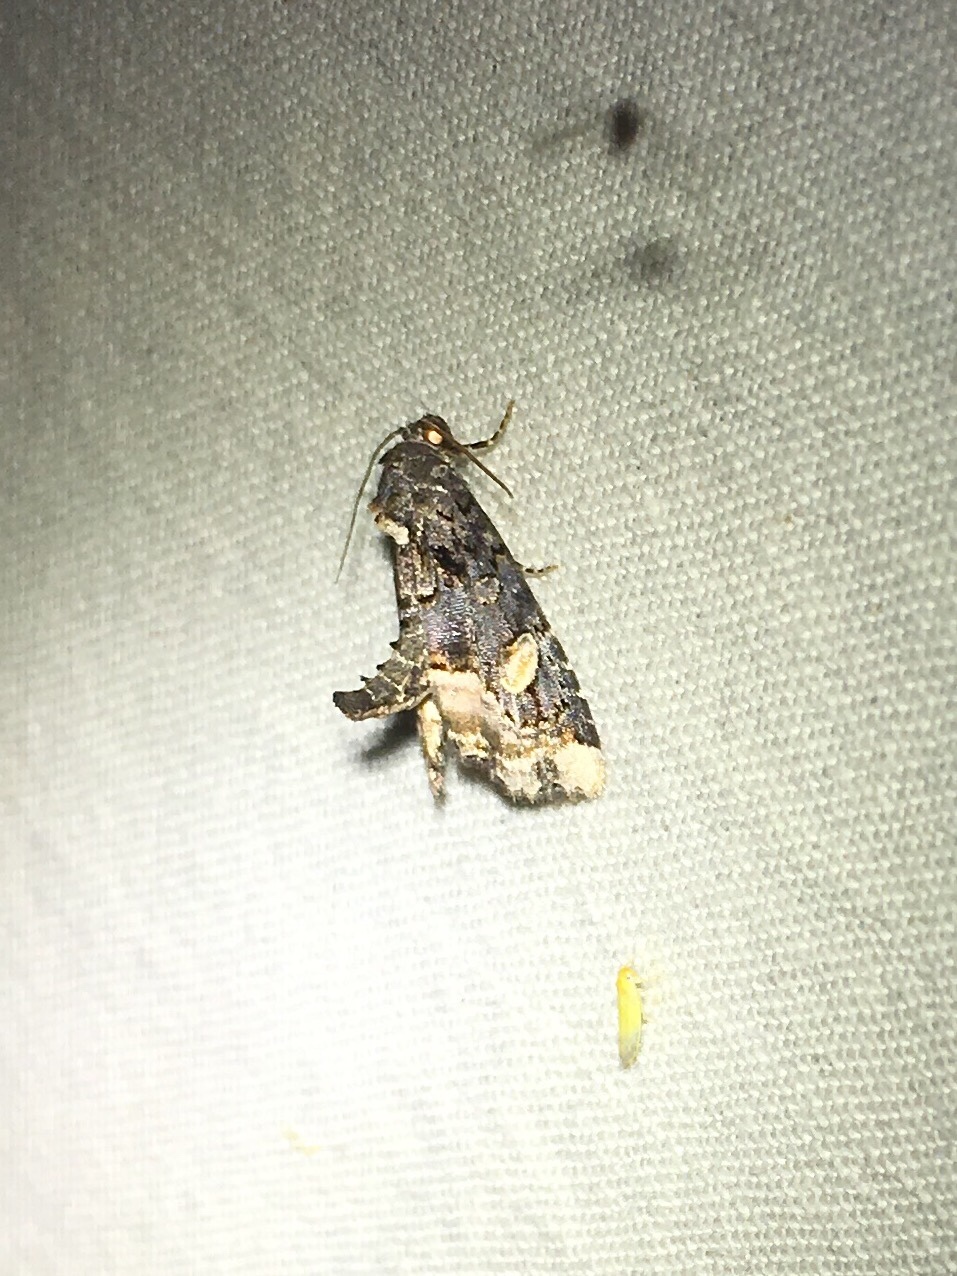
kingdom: Animalia
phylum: Arthropoda
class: Insecta
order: Lepidoptera
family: Noctuidae
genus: Homophoberia
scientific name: Homophoberia apicosa
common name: Black wedge-spot
